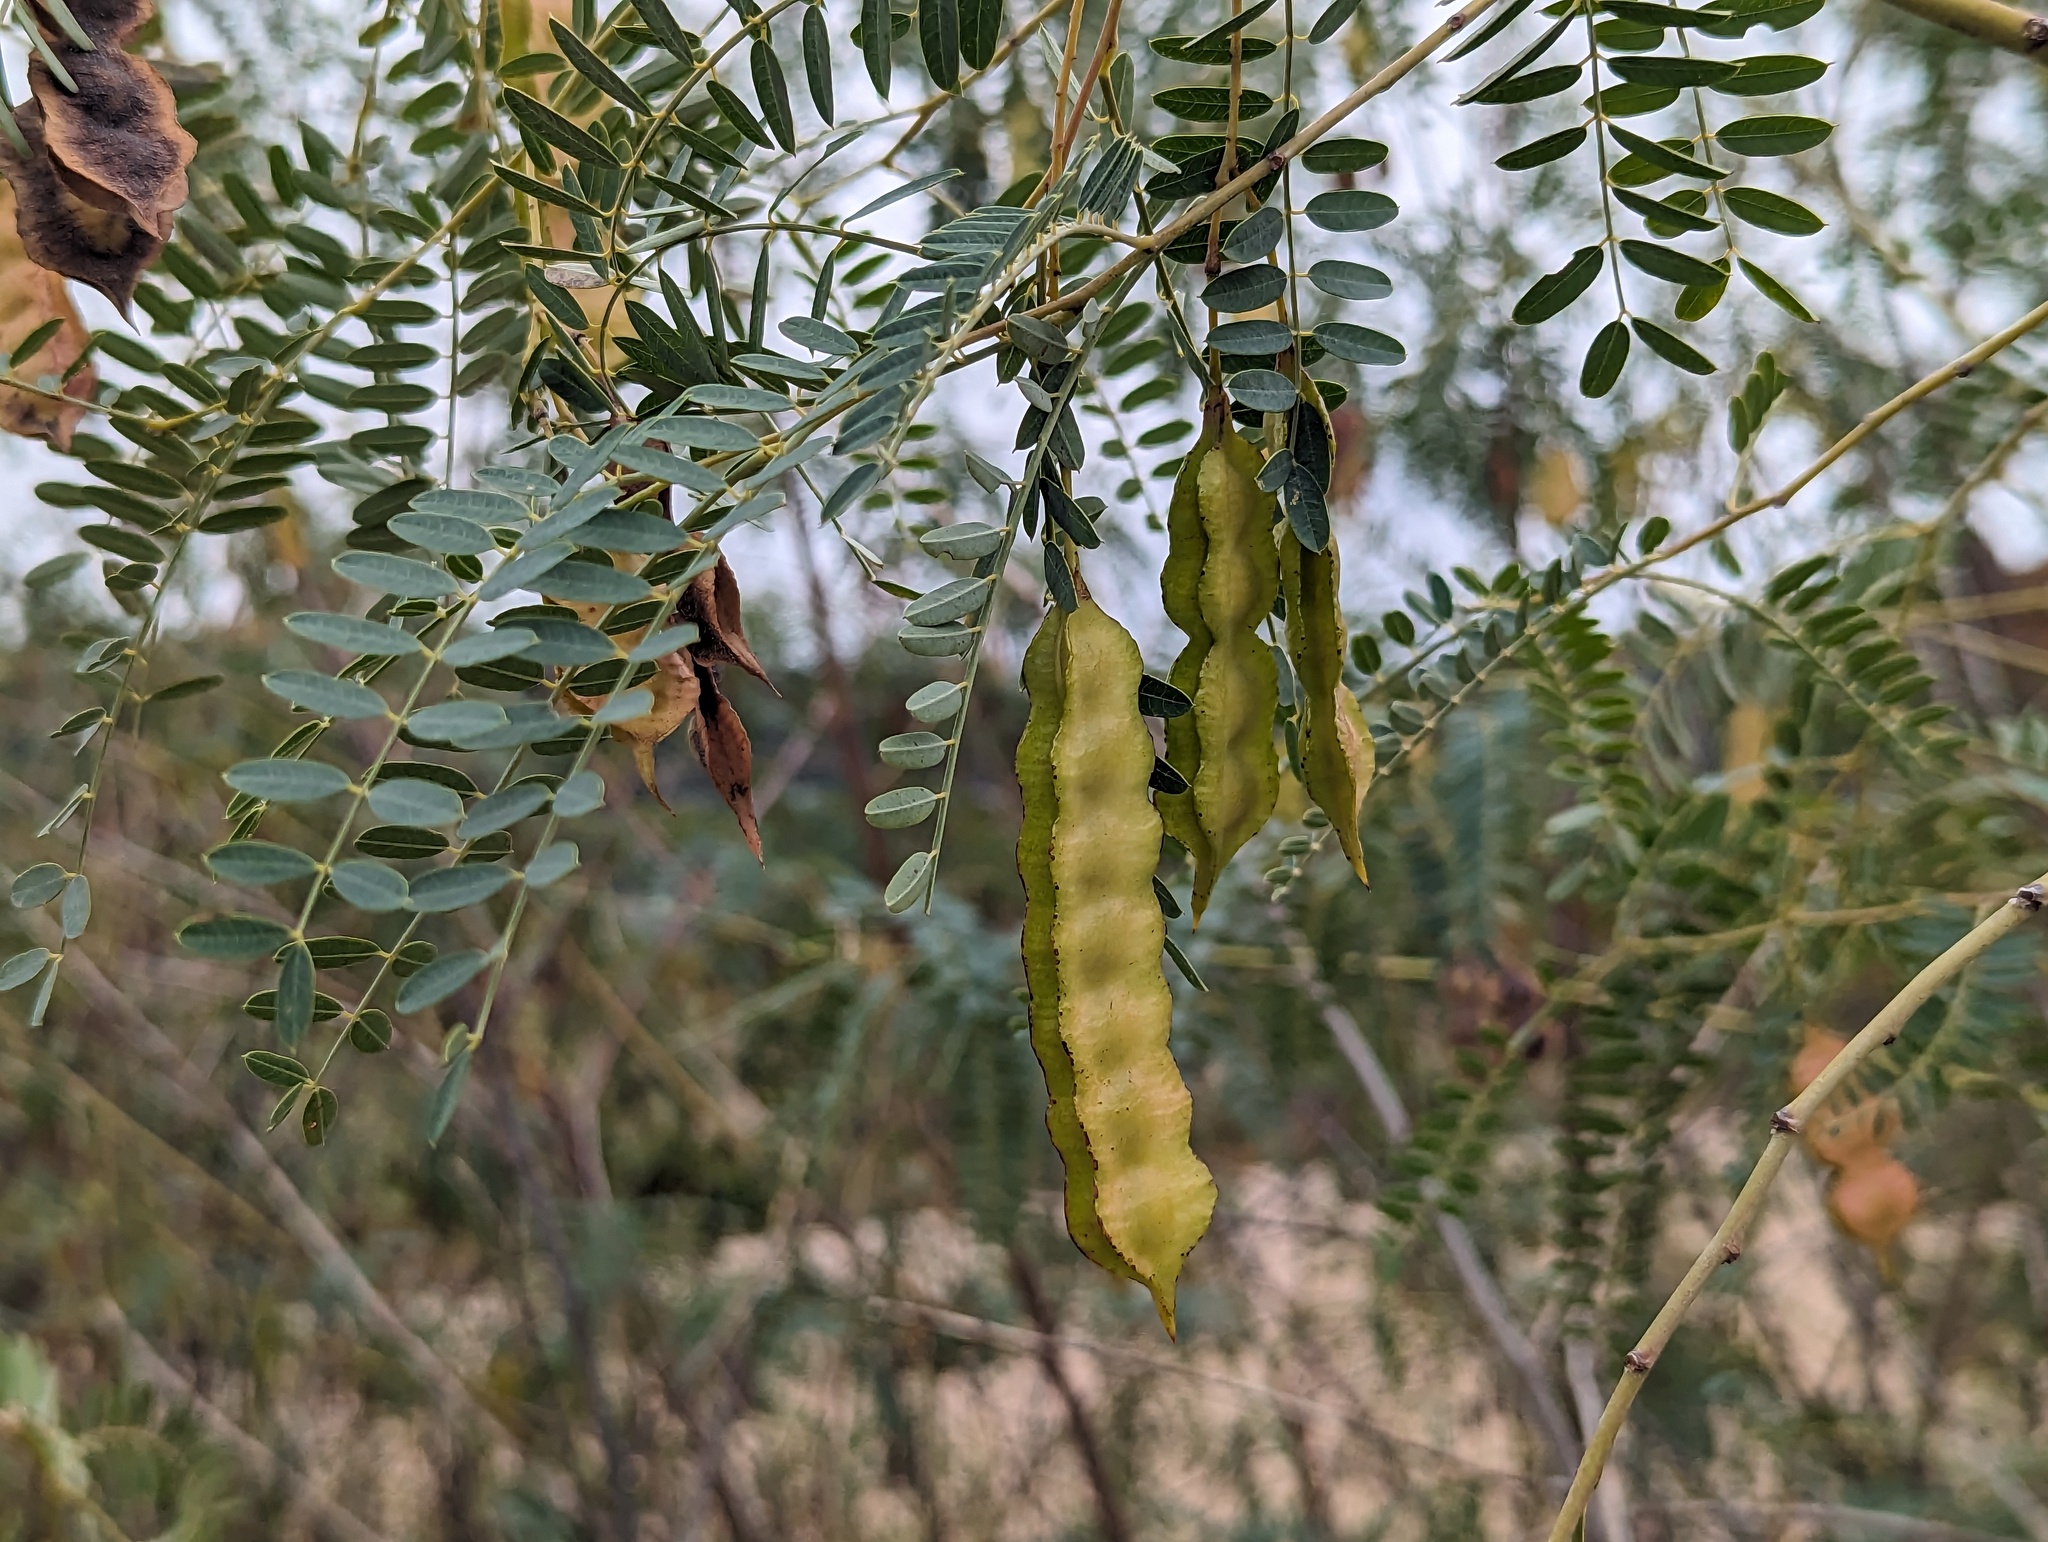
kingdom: Plantae
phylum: Tracheophyta
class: Magnoliopsida
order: Fabales
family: Fabaceae
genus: Sesbania
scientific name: Sesbania drummondii
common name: Poison-bean
